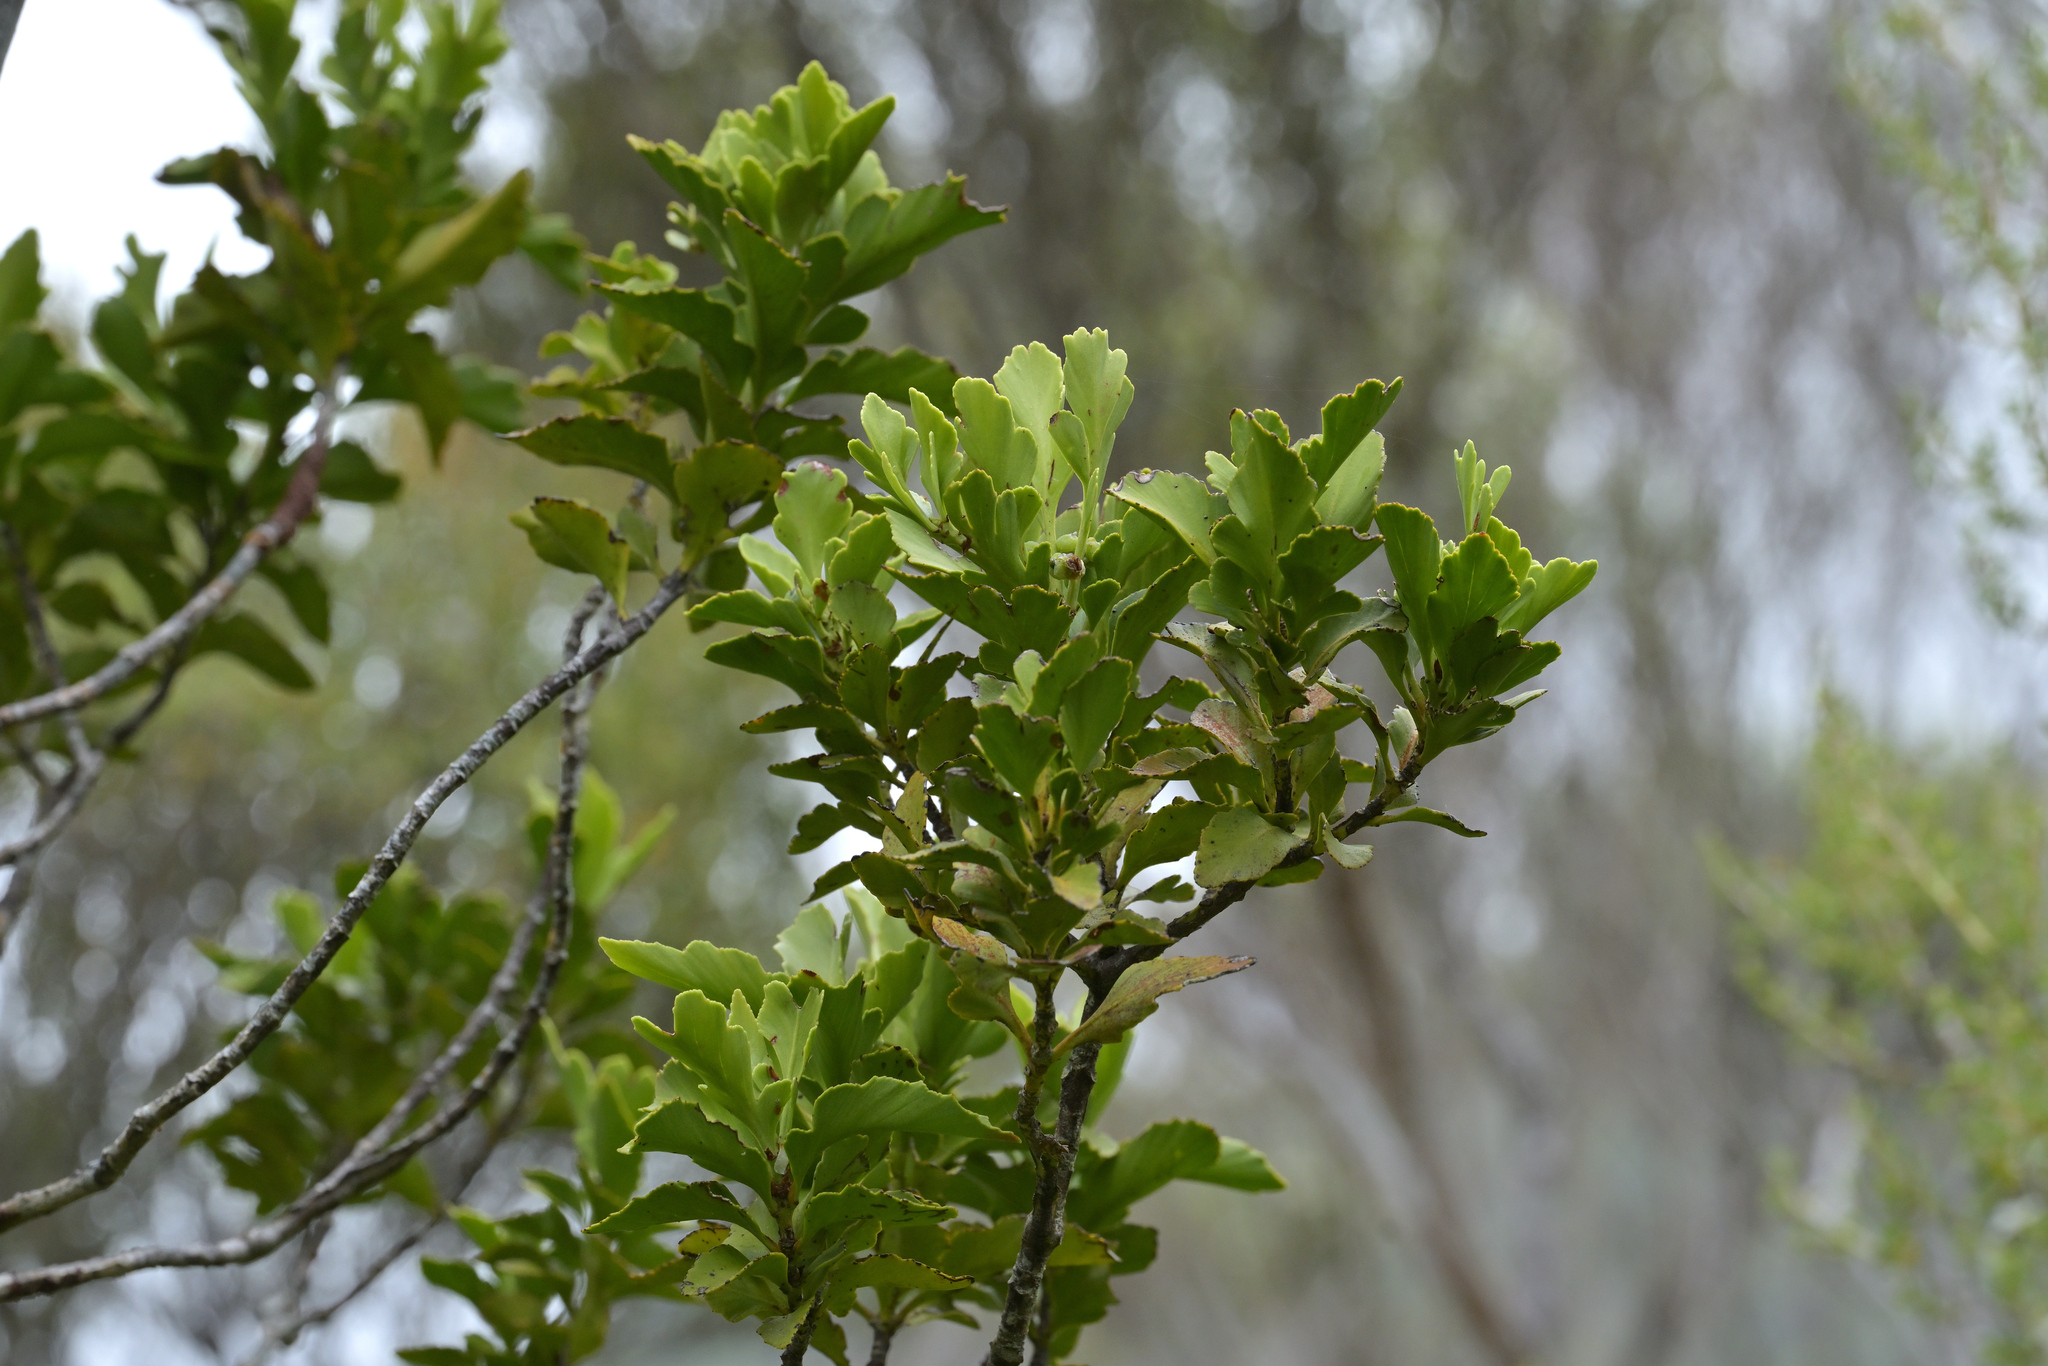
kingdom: Plantae
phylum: Tracheophyta
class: Pinopsida
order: Pinales
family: Phyllocladaceae
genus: Phyllocladus
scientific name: Phyllocladus trichomanoides
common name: Celery pine
